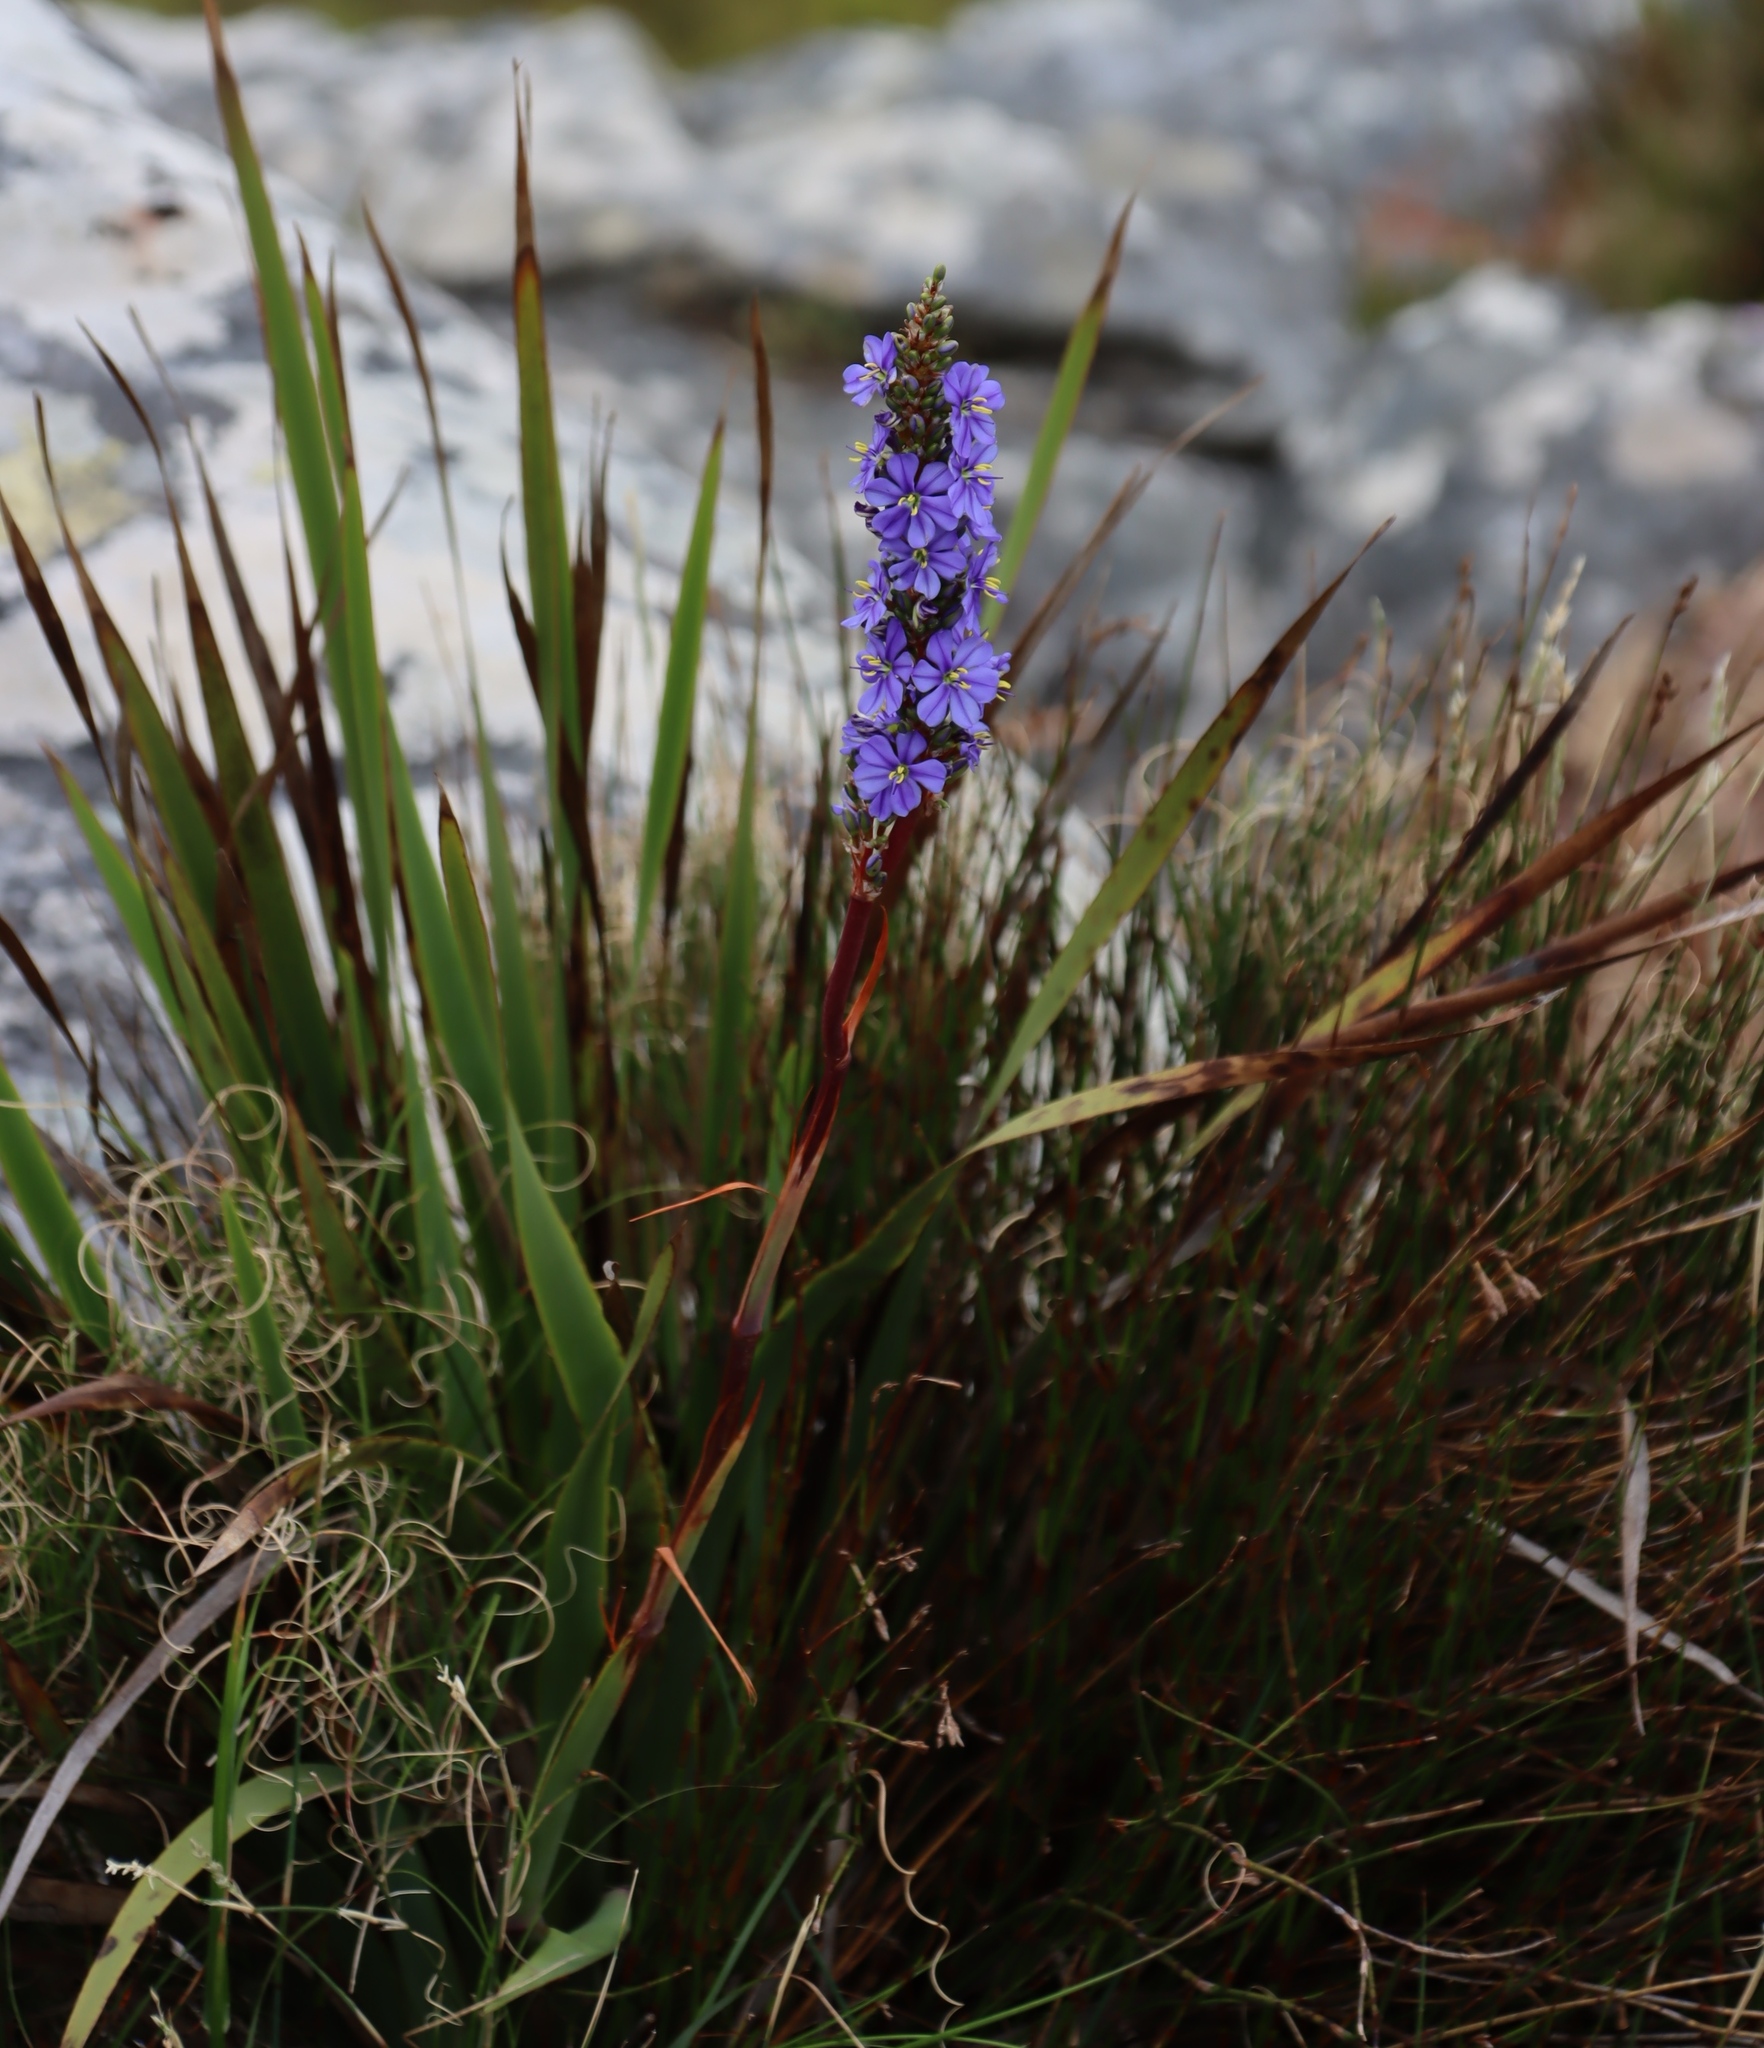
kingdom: Plantae
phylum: Tracheophyta
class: Liliopsida
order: Asparagales
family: Iridaceae
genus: Aristea
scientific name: Aristea capitata
